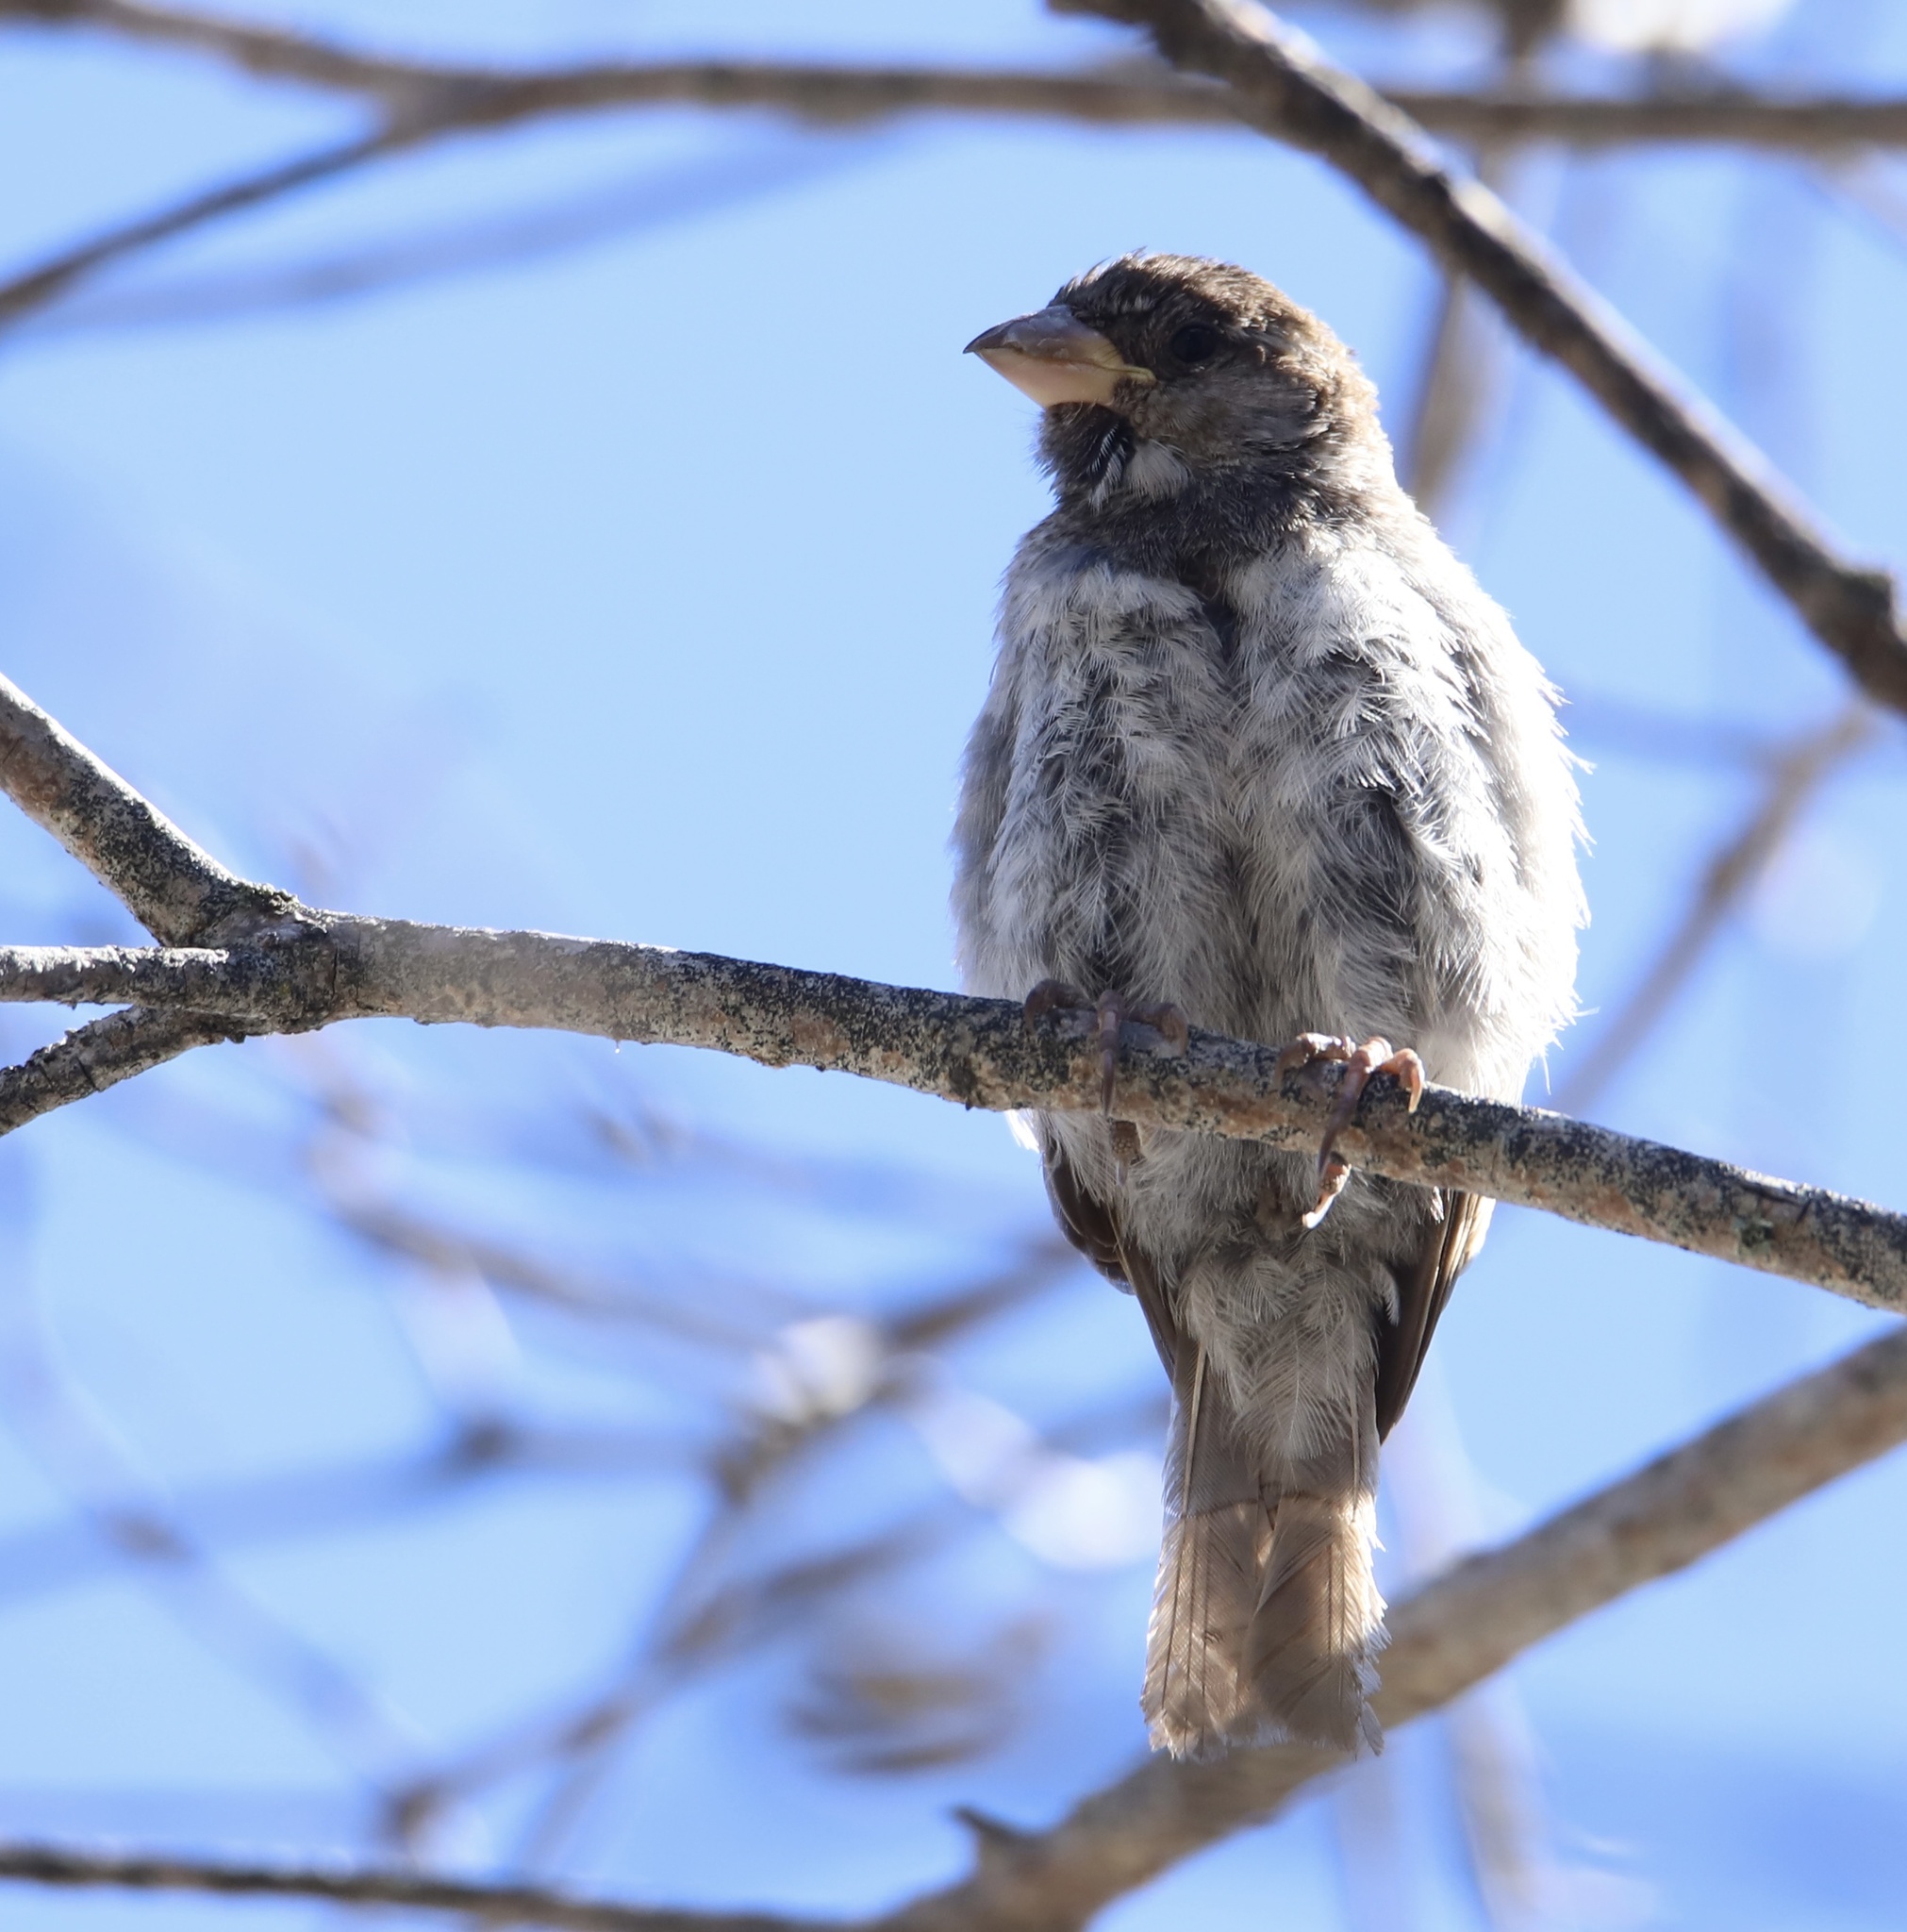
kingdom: Animalia
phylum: Chordata
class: Aves
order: Passeriformes
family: Passeridae
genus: Passer
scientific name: Passer domesticus
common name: House sparrow
